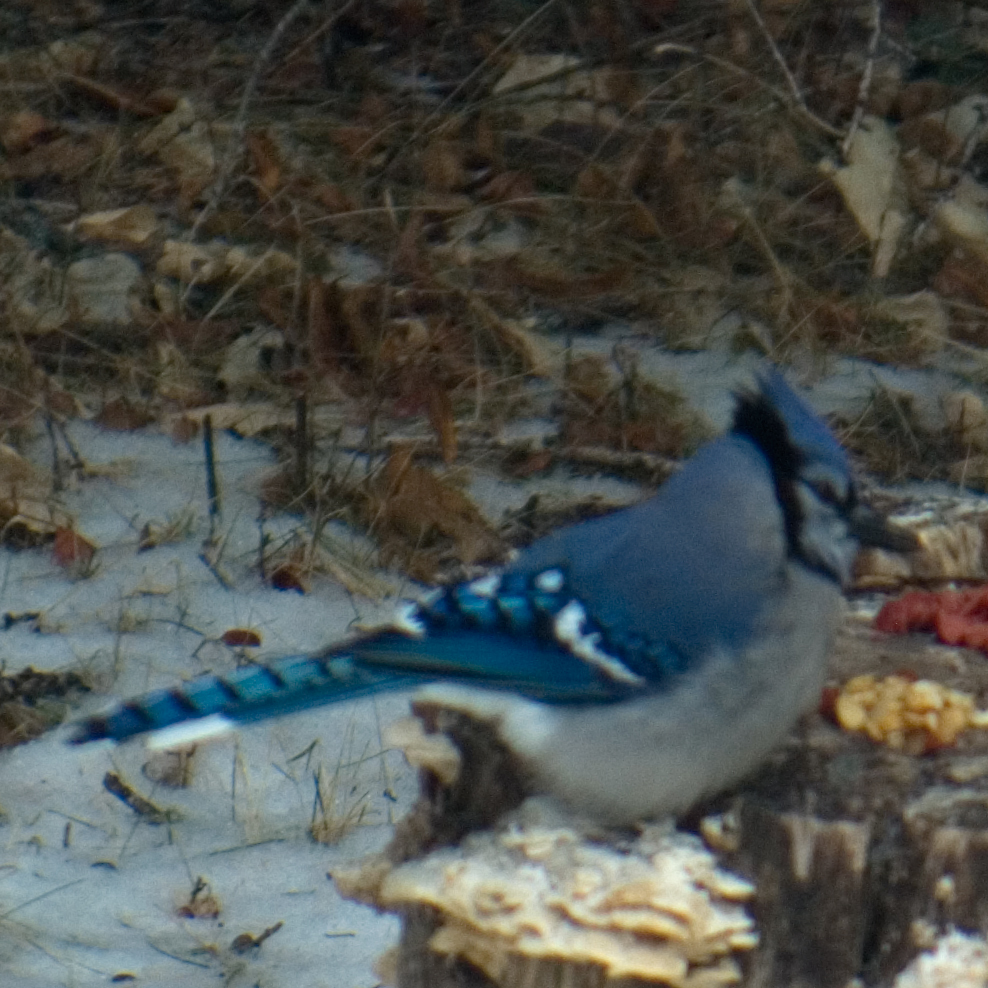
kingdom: Animalia
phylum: Chordata
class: Aves
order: Passeriformes
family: Corvidae
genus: Cyanocitta
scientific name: Cyanocitta cristata
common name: Blue jay
